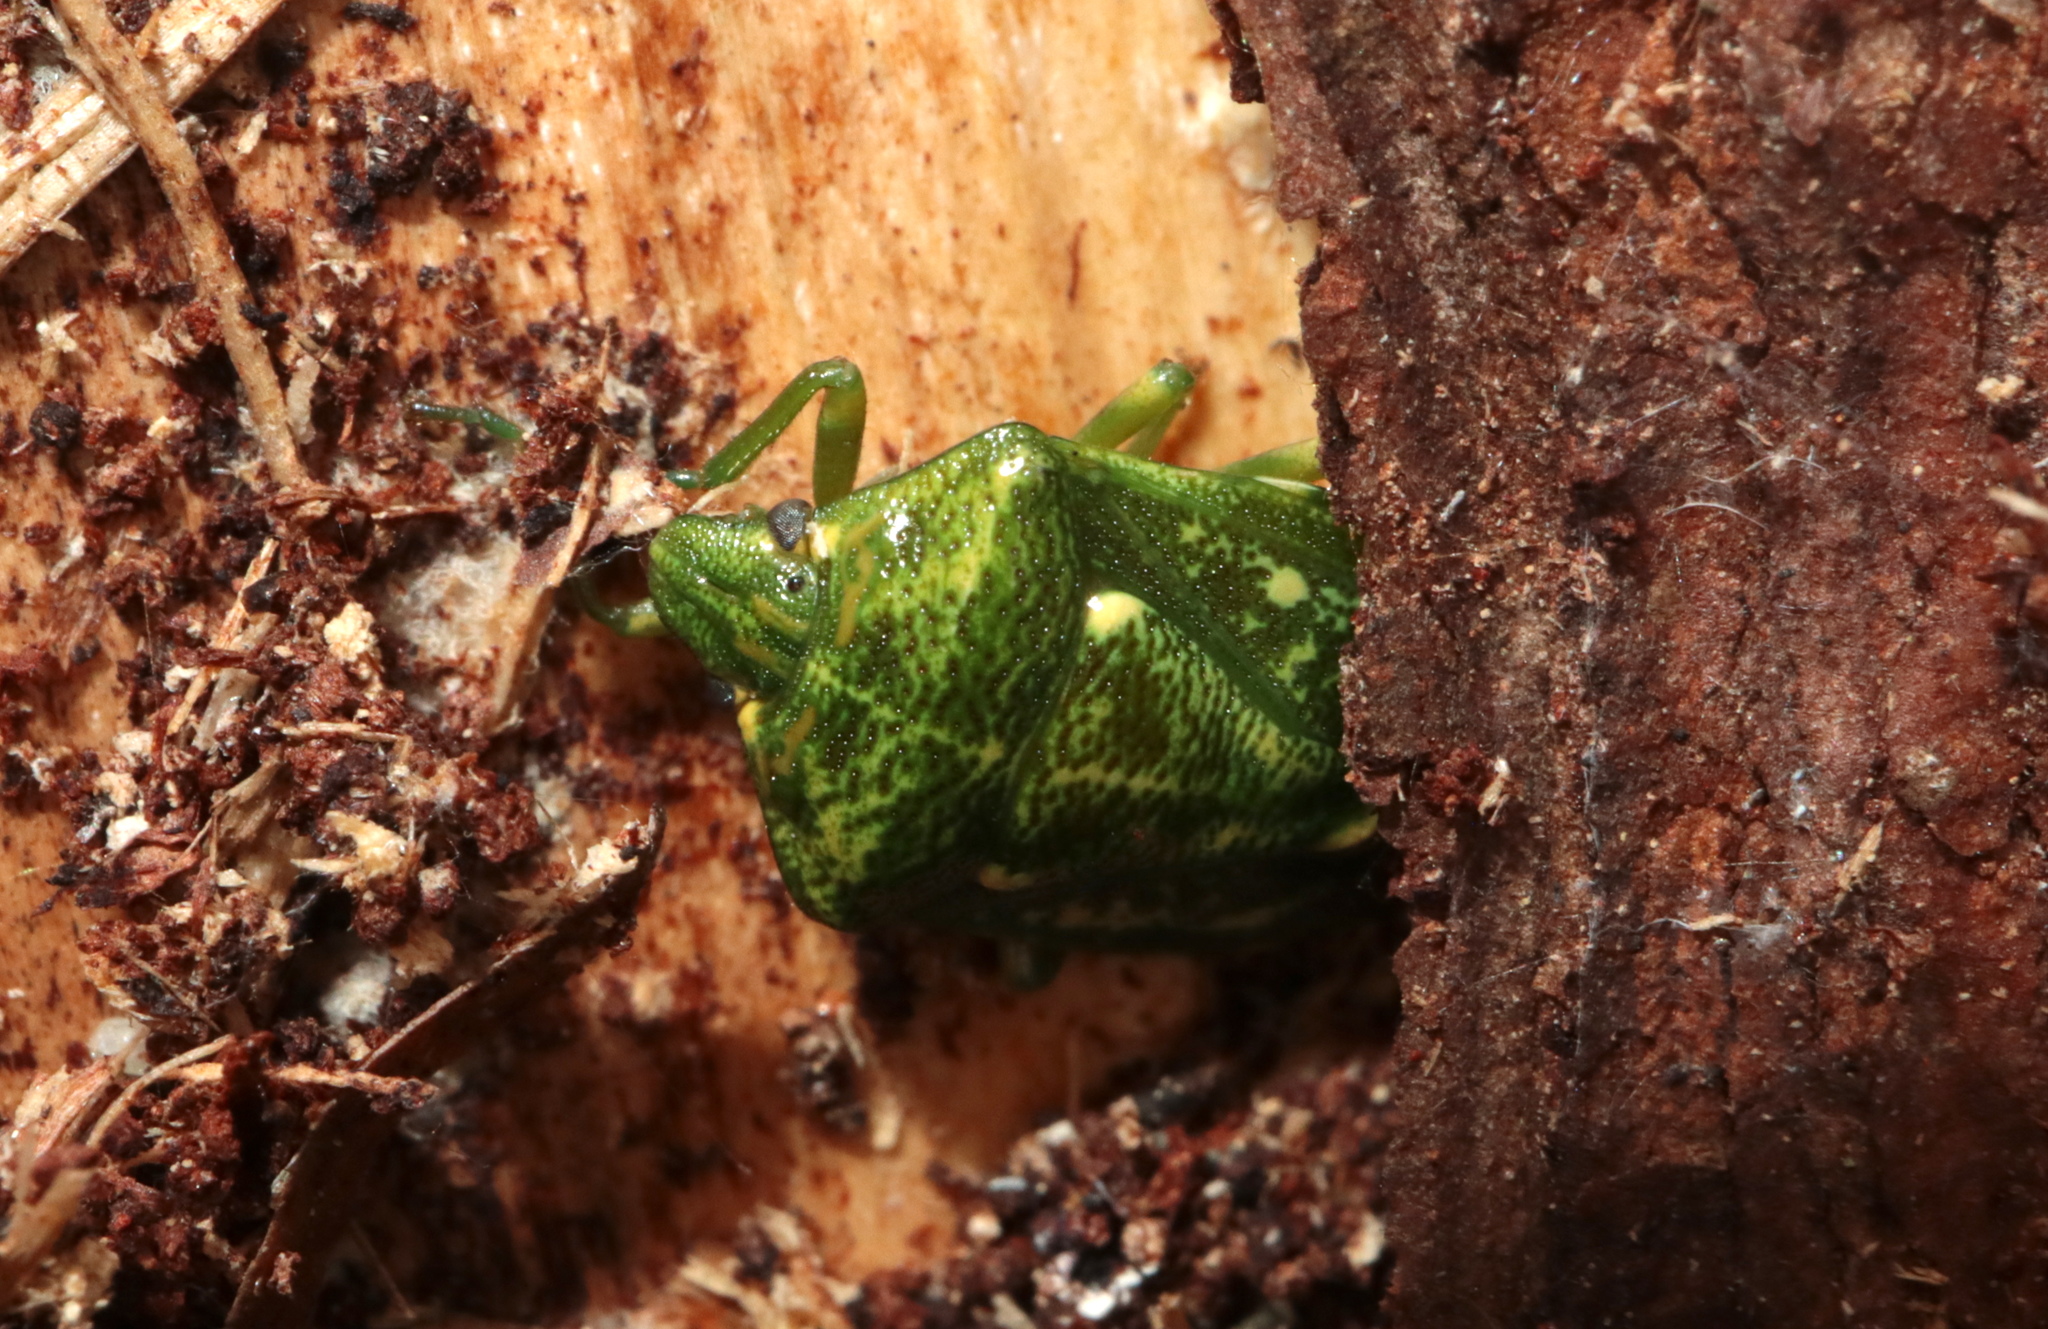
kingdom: Animalia
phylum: Arthropoda
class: Insecta
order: Hemiptera
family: Pentatomidae
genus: Banasa
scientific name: Banasa euchlora
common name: Cedar berry bug
